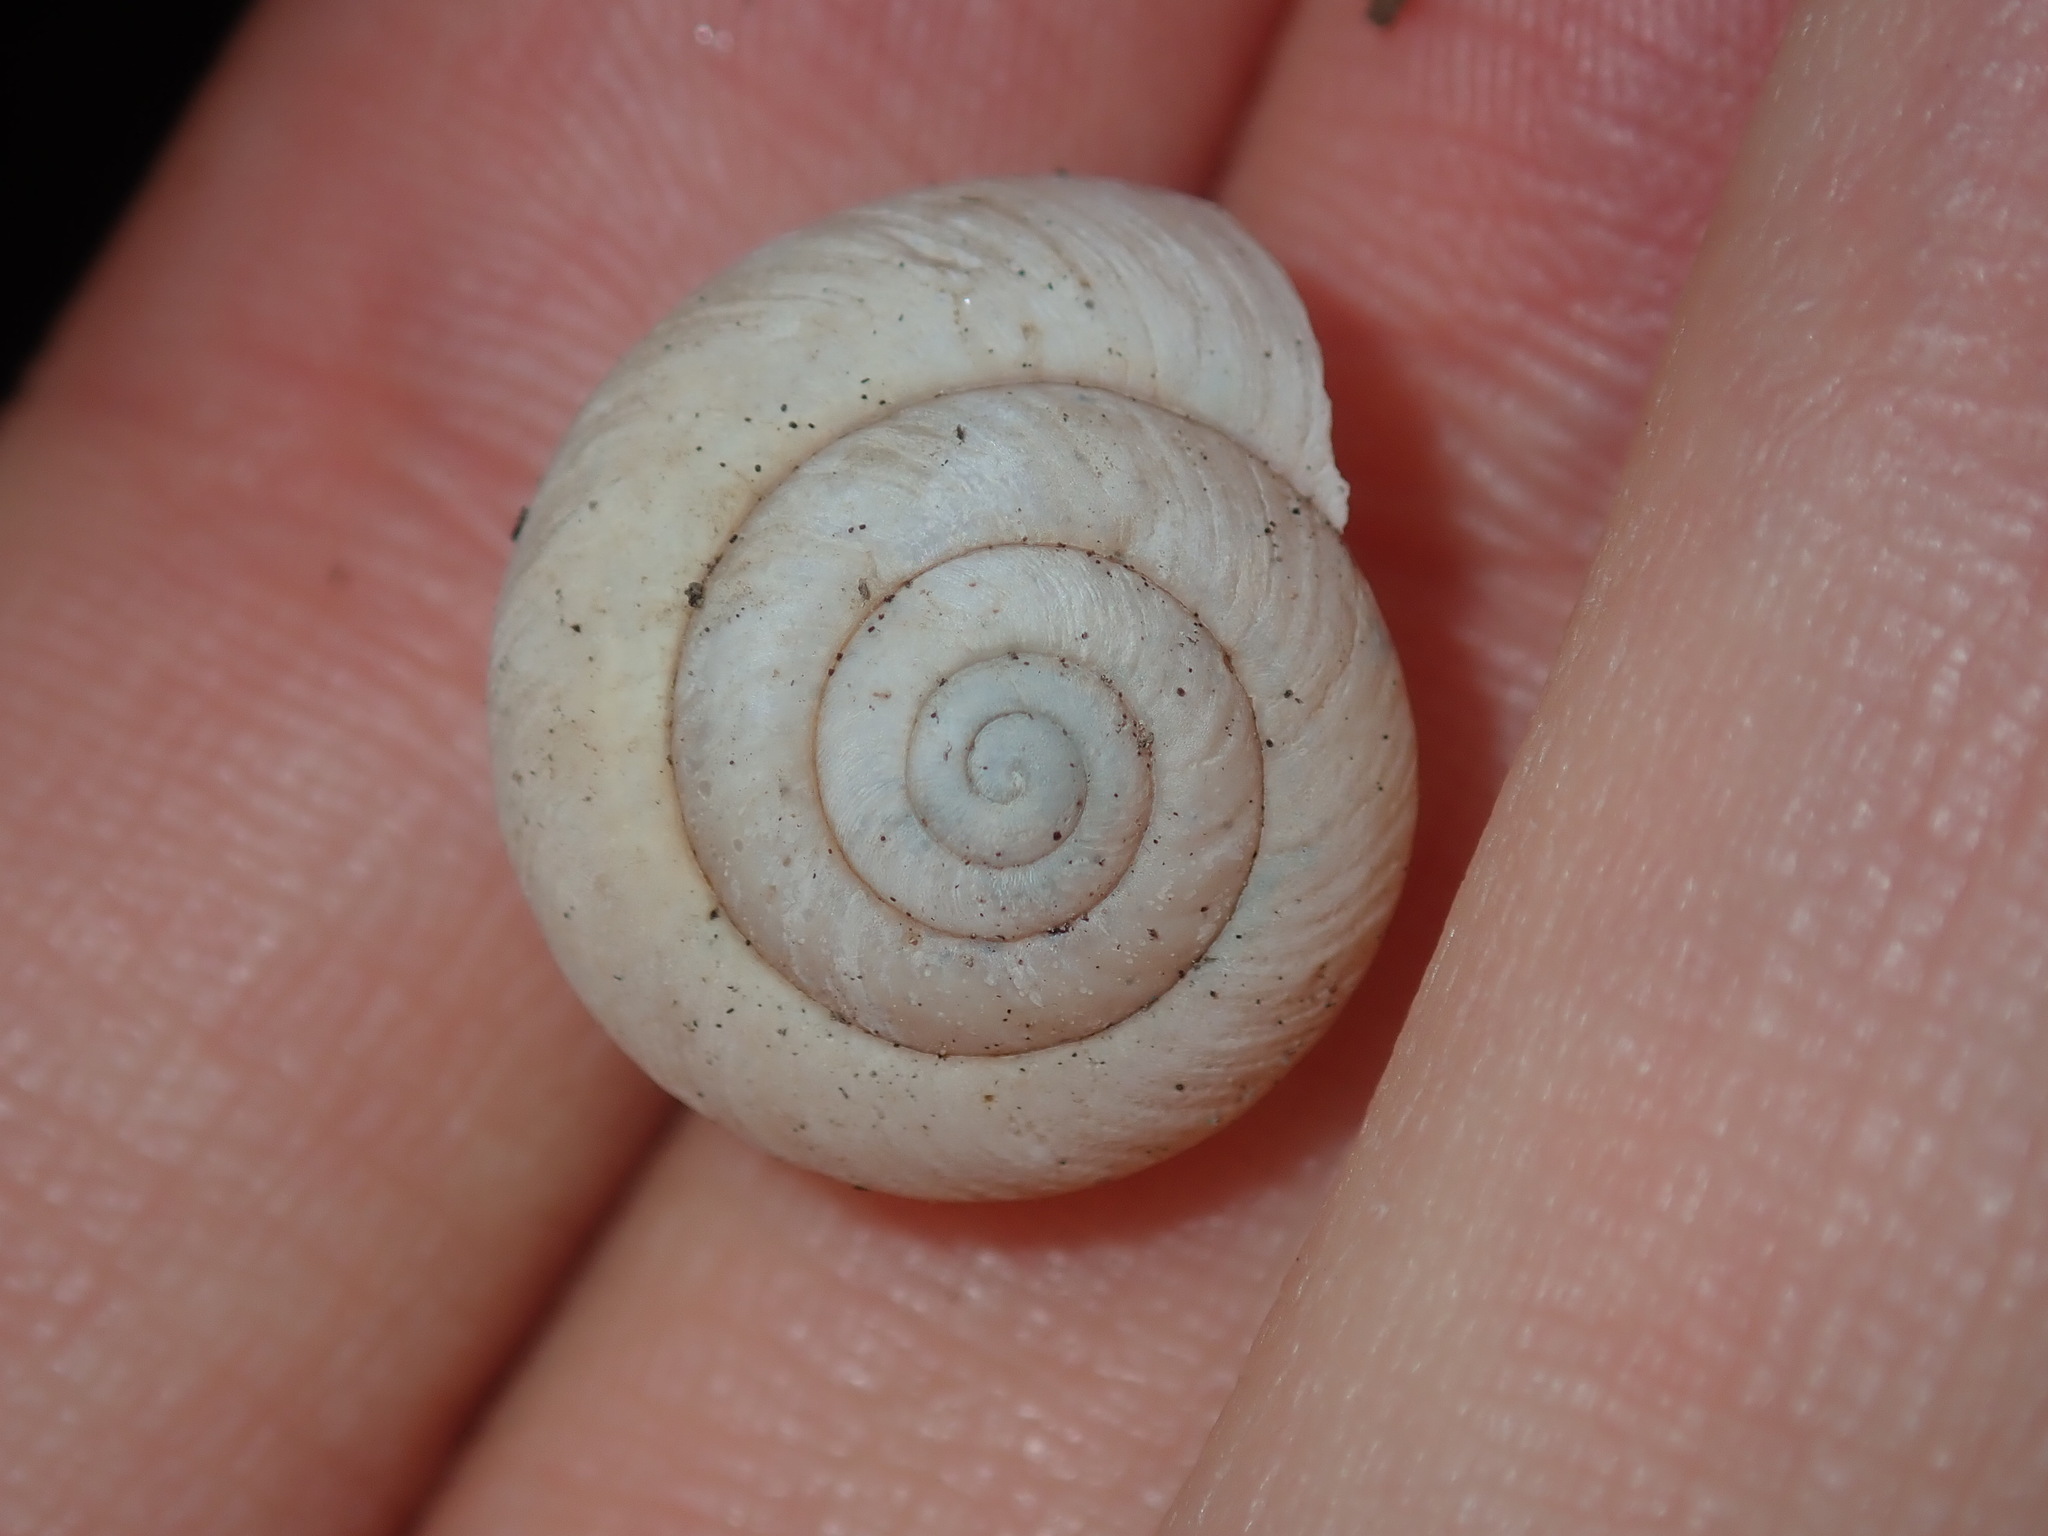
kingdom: Animalia
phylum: Mollusca
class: Gastropoda
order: Stylommatophora
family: Camaenidae
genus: Sauroconcha
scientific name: Sauroconcha sheai
